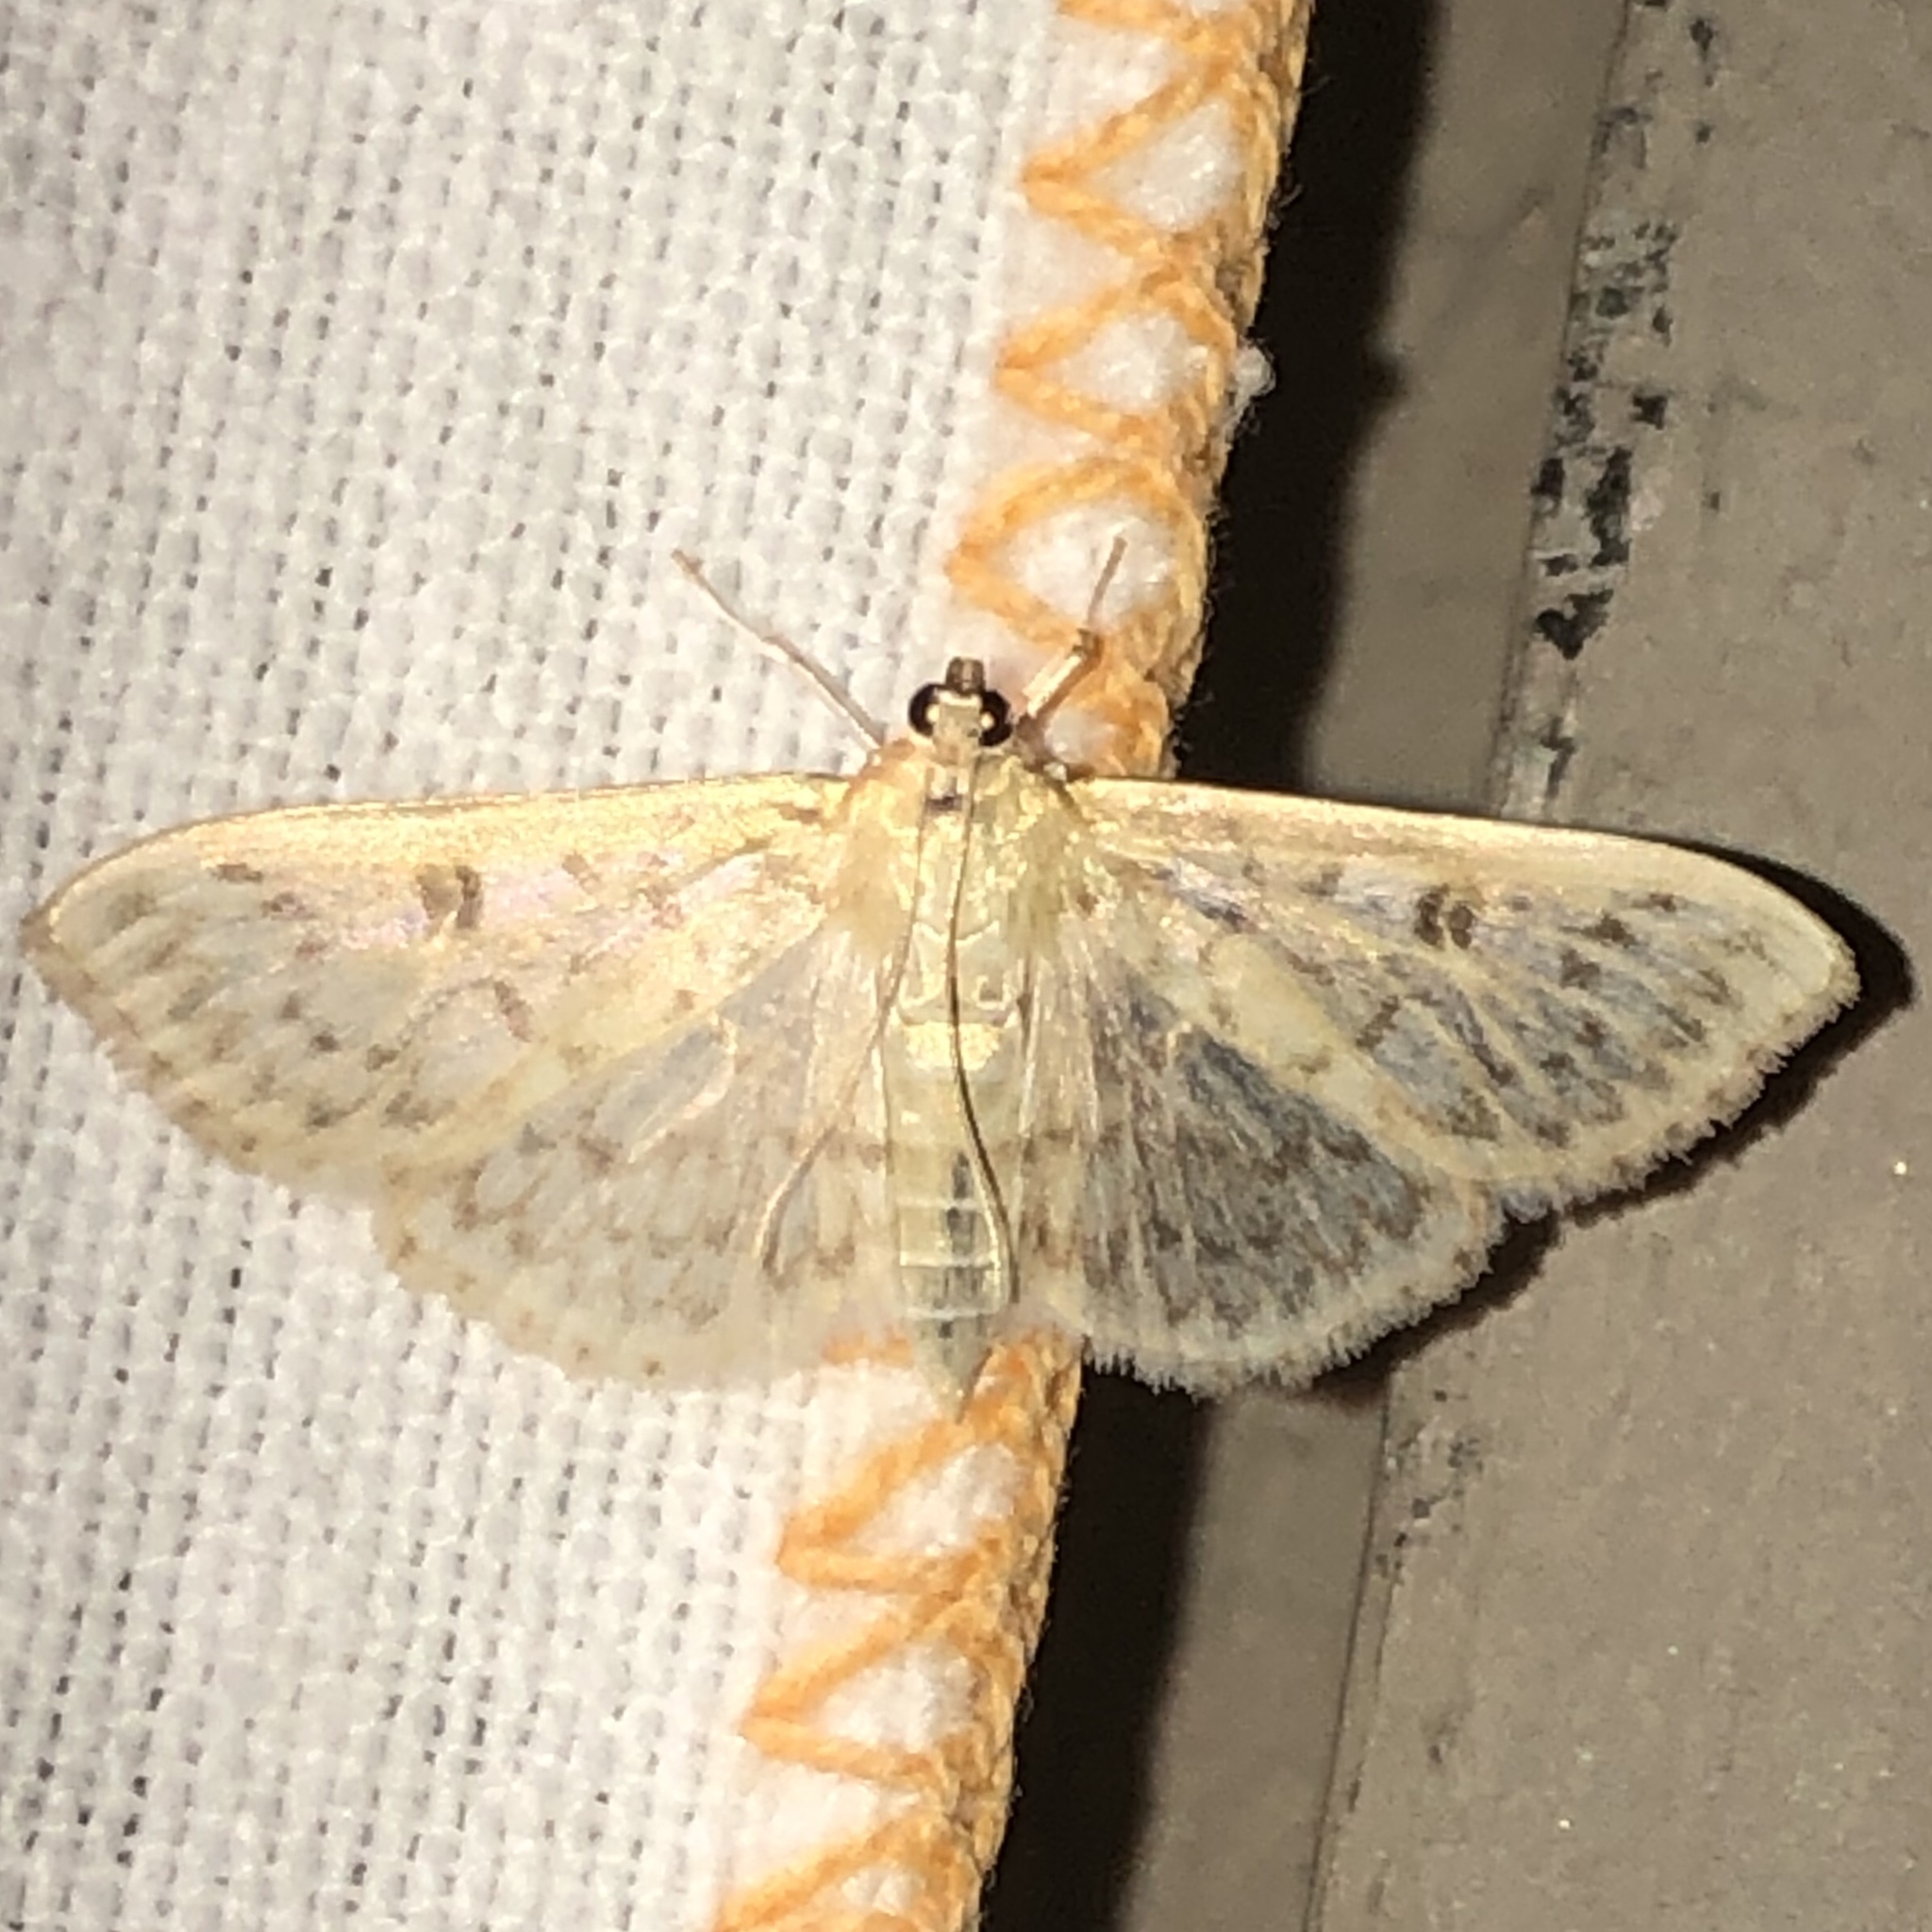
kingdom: Animalia
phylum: Arthropoda
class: Insecta
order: Lepidoptera
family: Crambidae
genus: Herpetogramma
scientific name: Herpetogramma aquilonalis
